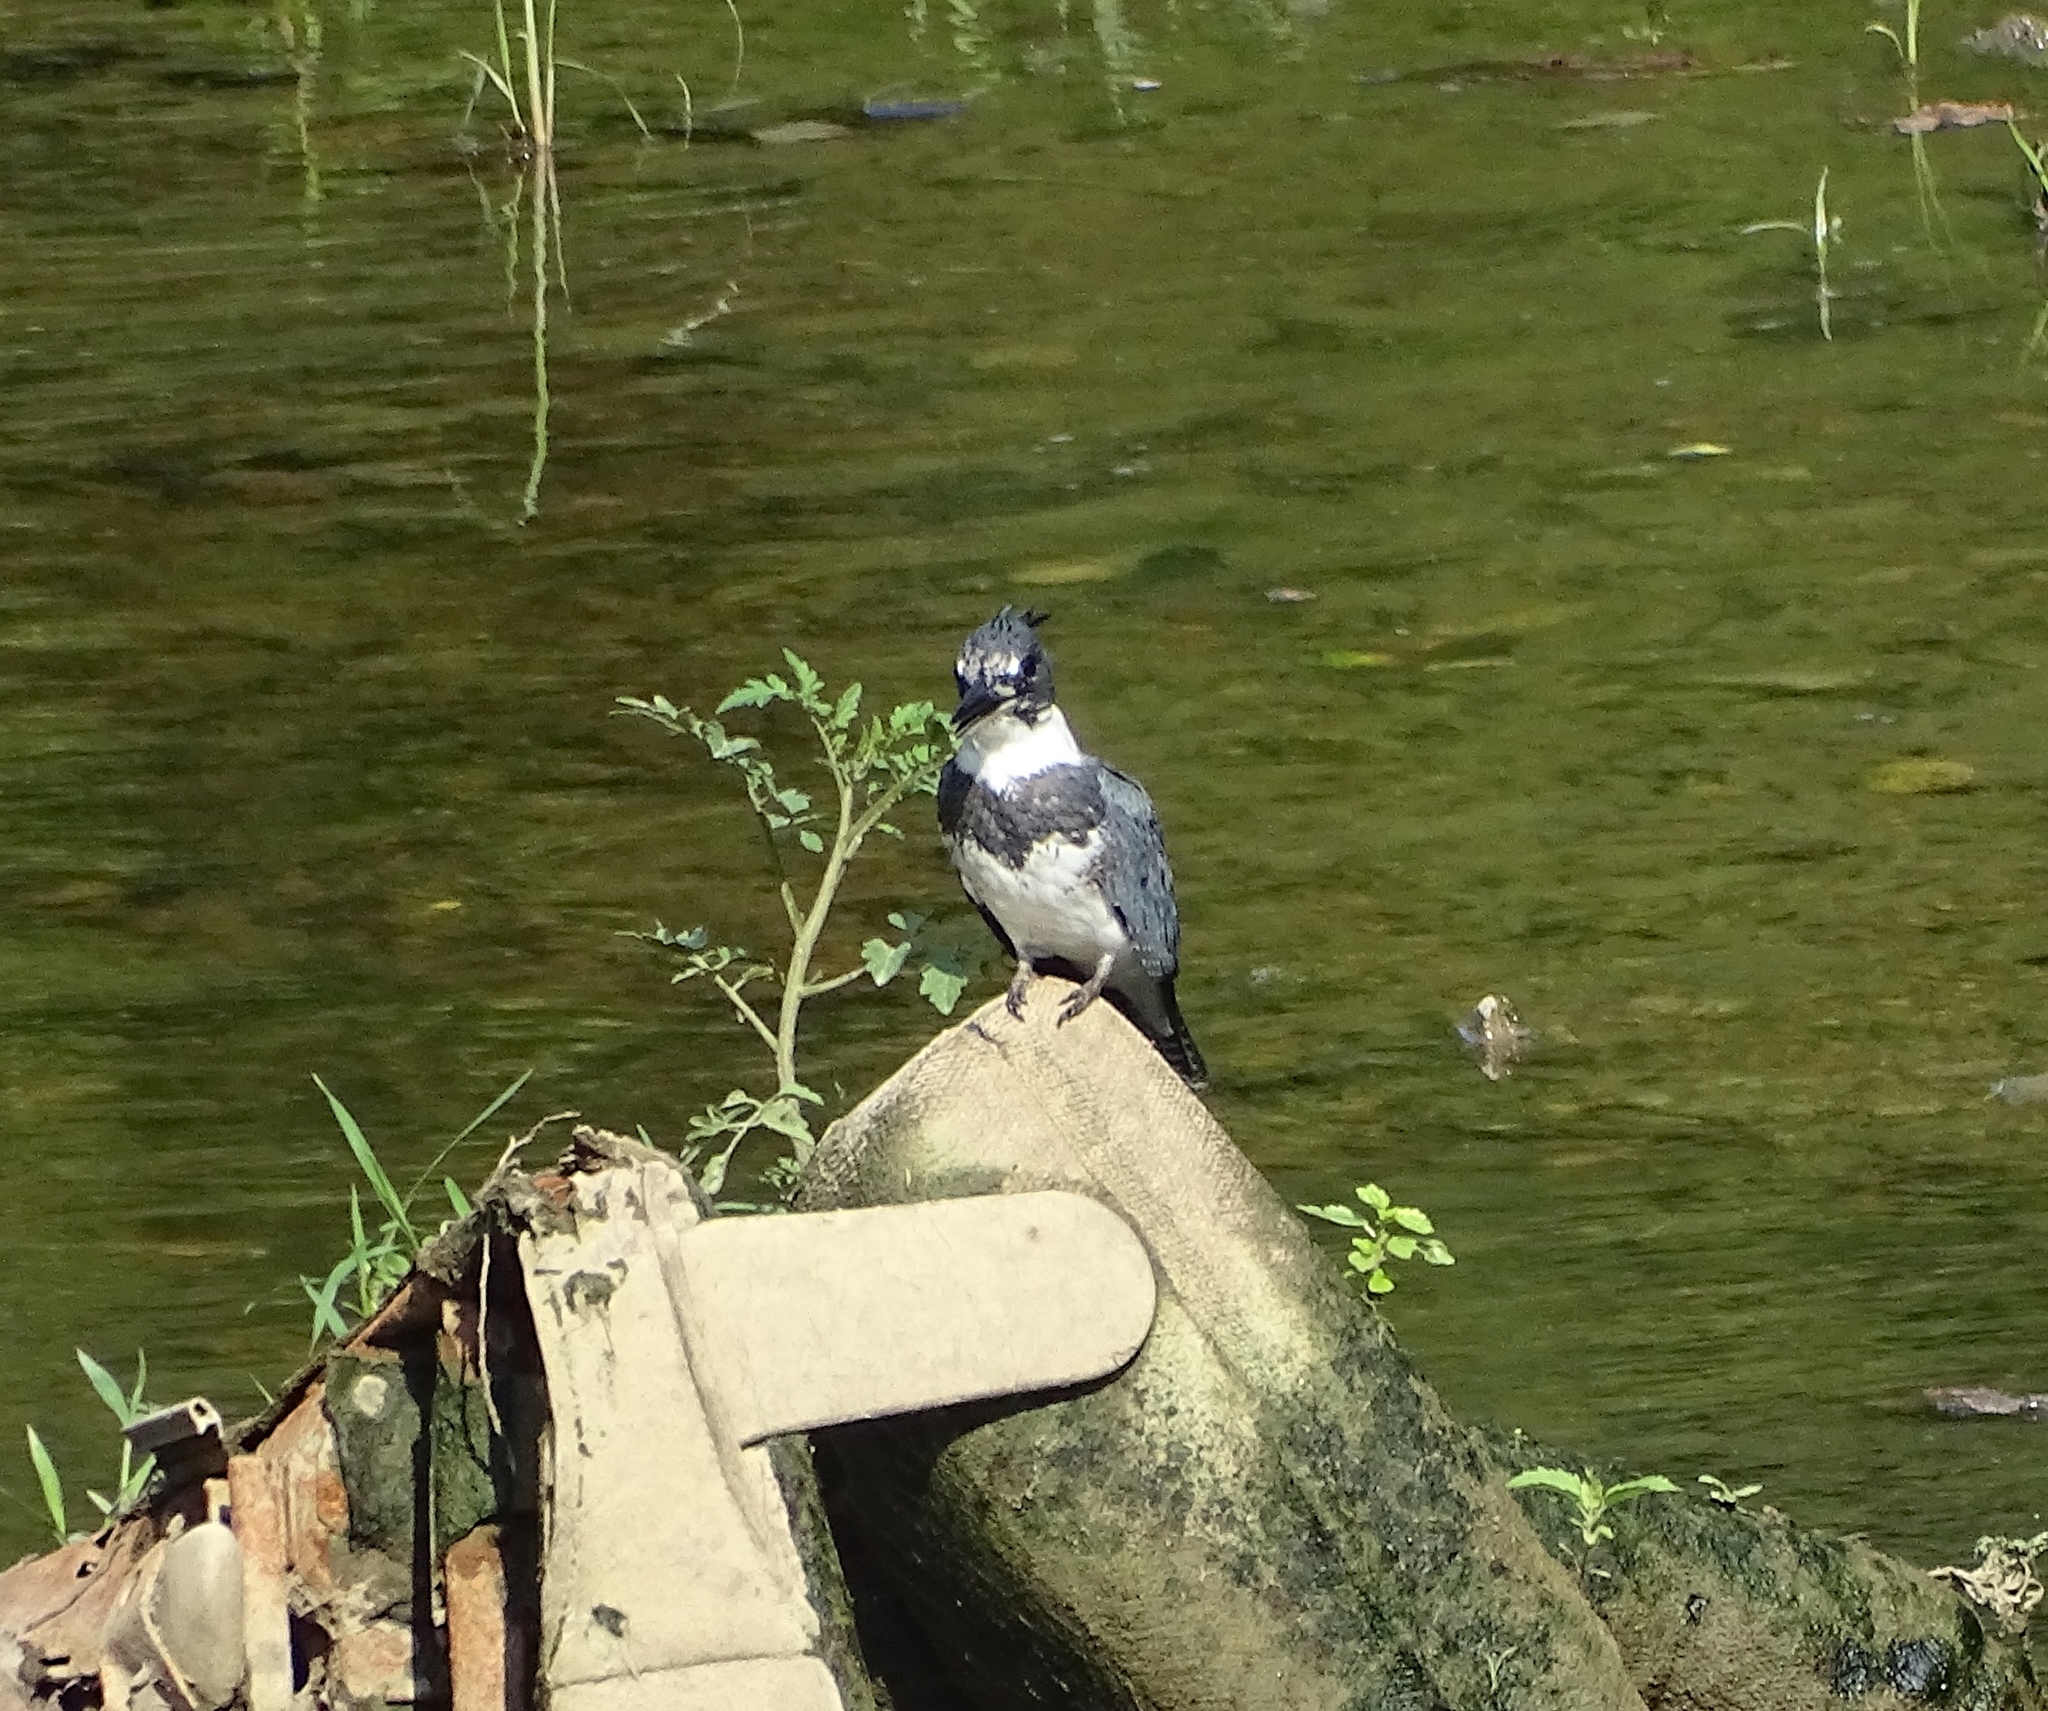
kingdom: Animalia
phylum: Chordata
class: Aves
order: Coraciiformes
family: Alcedinidae
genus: Megaceryle
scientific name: Megaceryle alcyon
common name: Belted kingfisher
